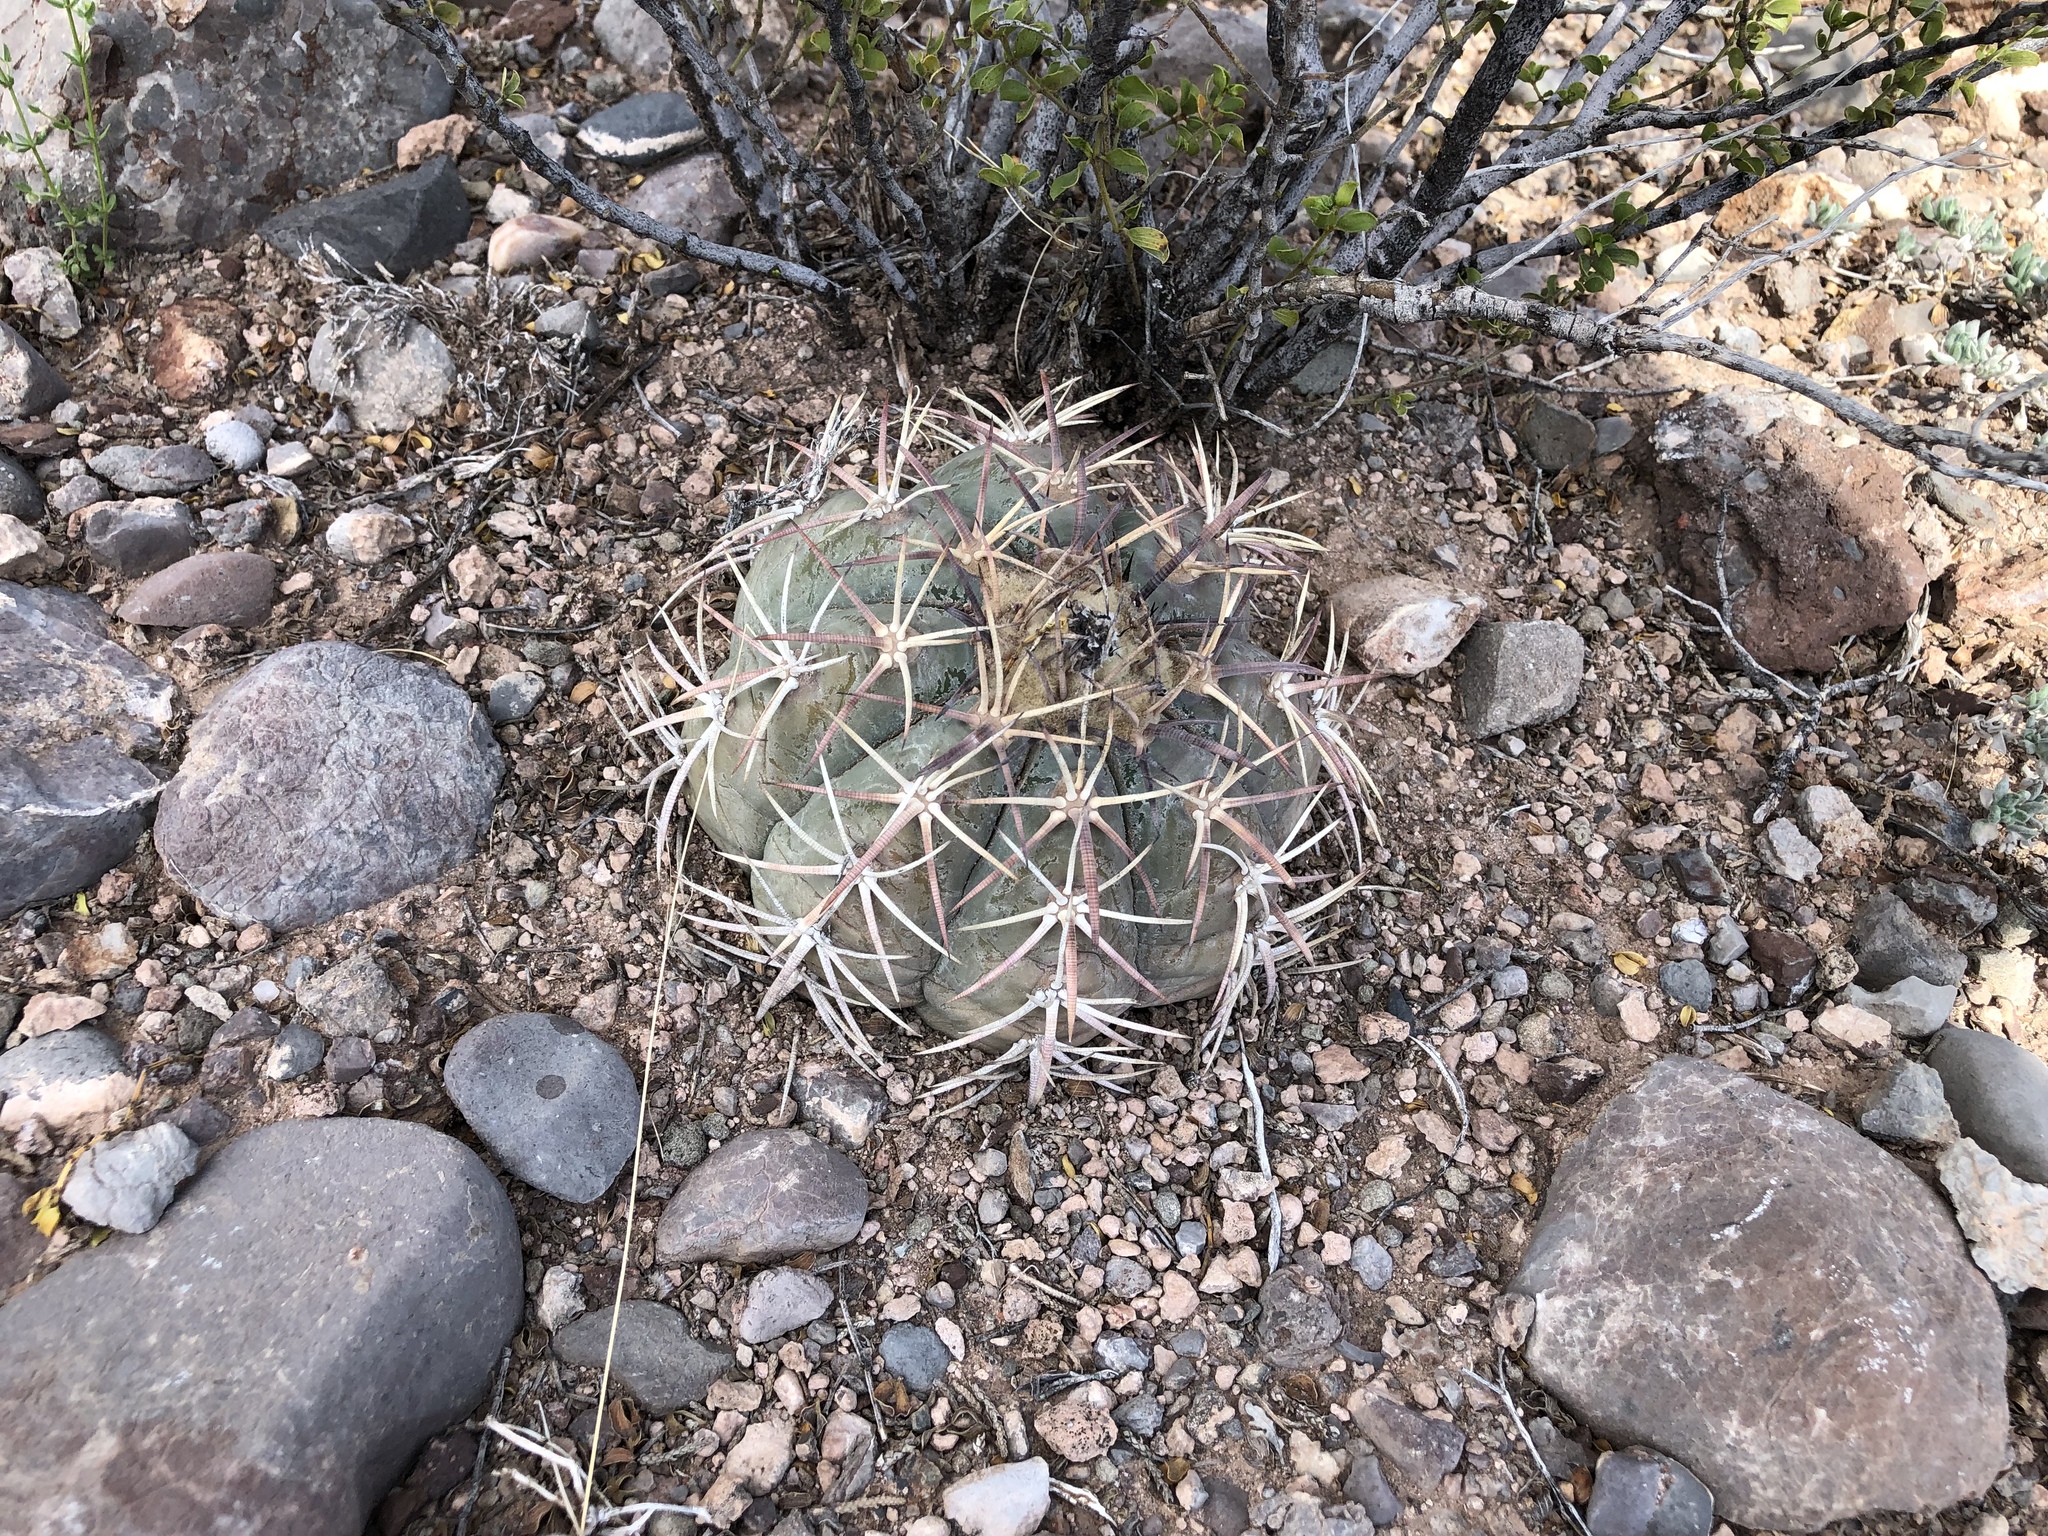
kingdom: Plantae
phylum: Tracheophyta
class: Magnoliopsida
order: Caryophyllales
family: Cactaceae
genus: Echinocactus
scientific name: Echinocactus horizonthalonius
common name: Devilshead
